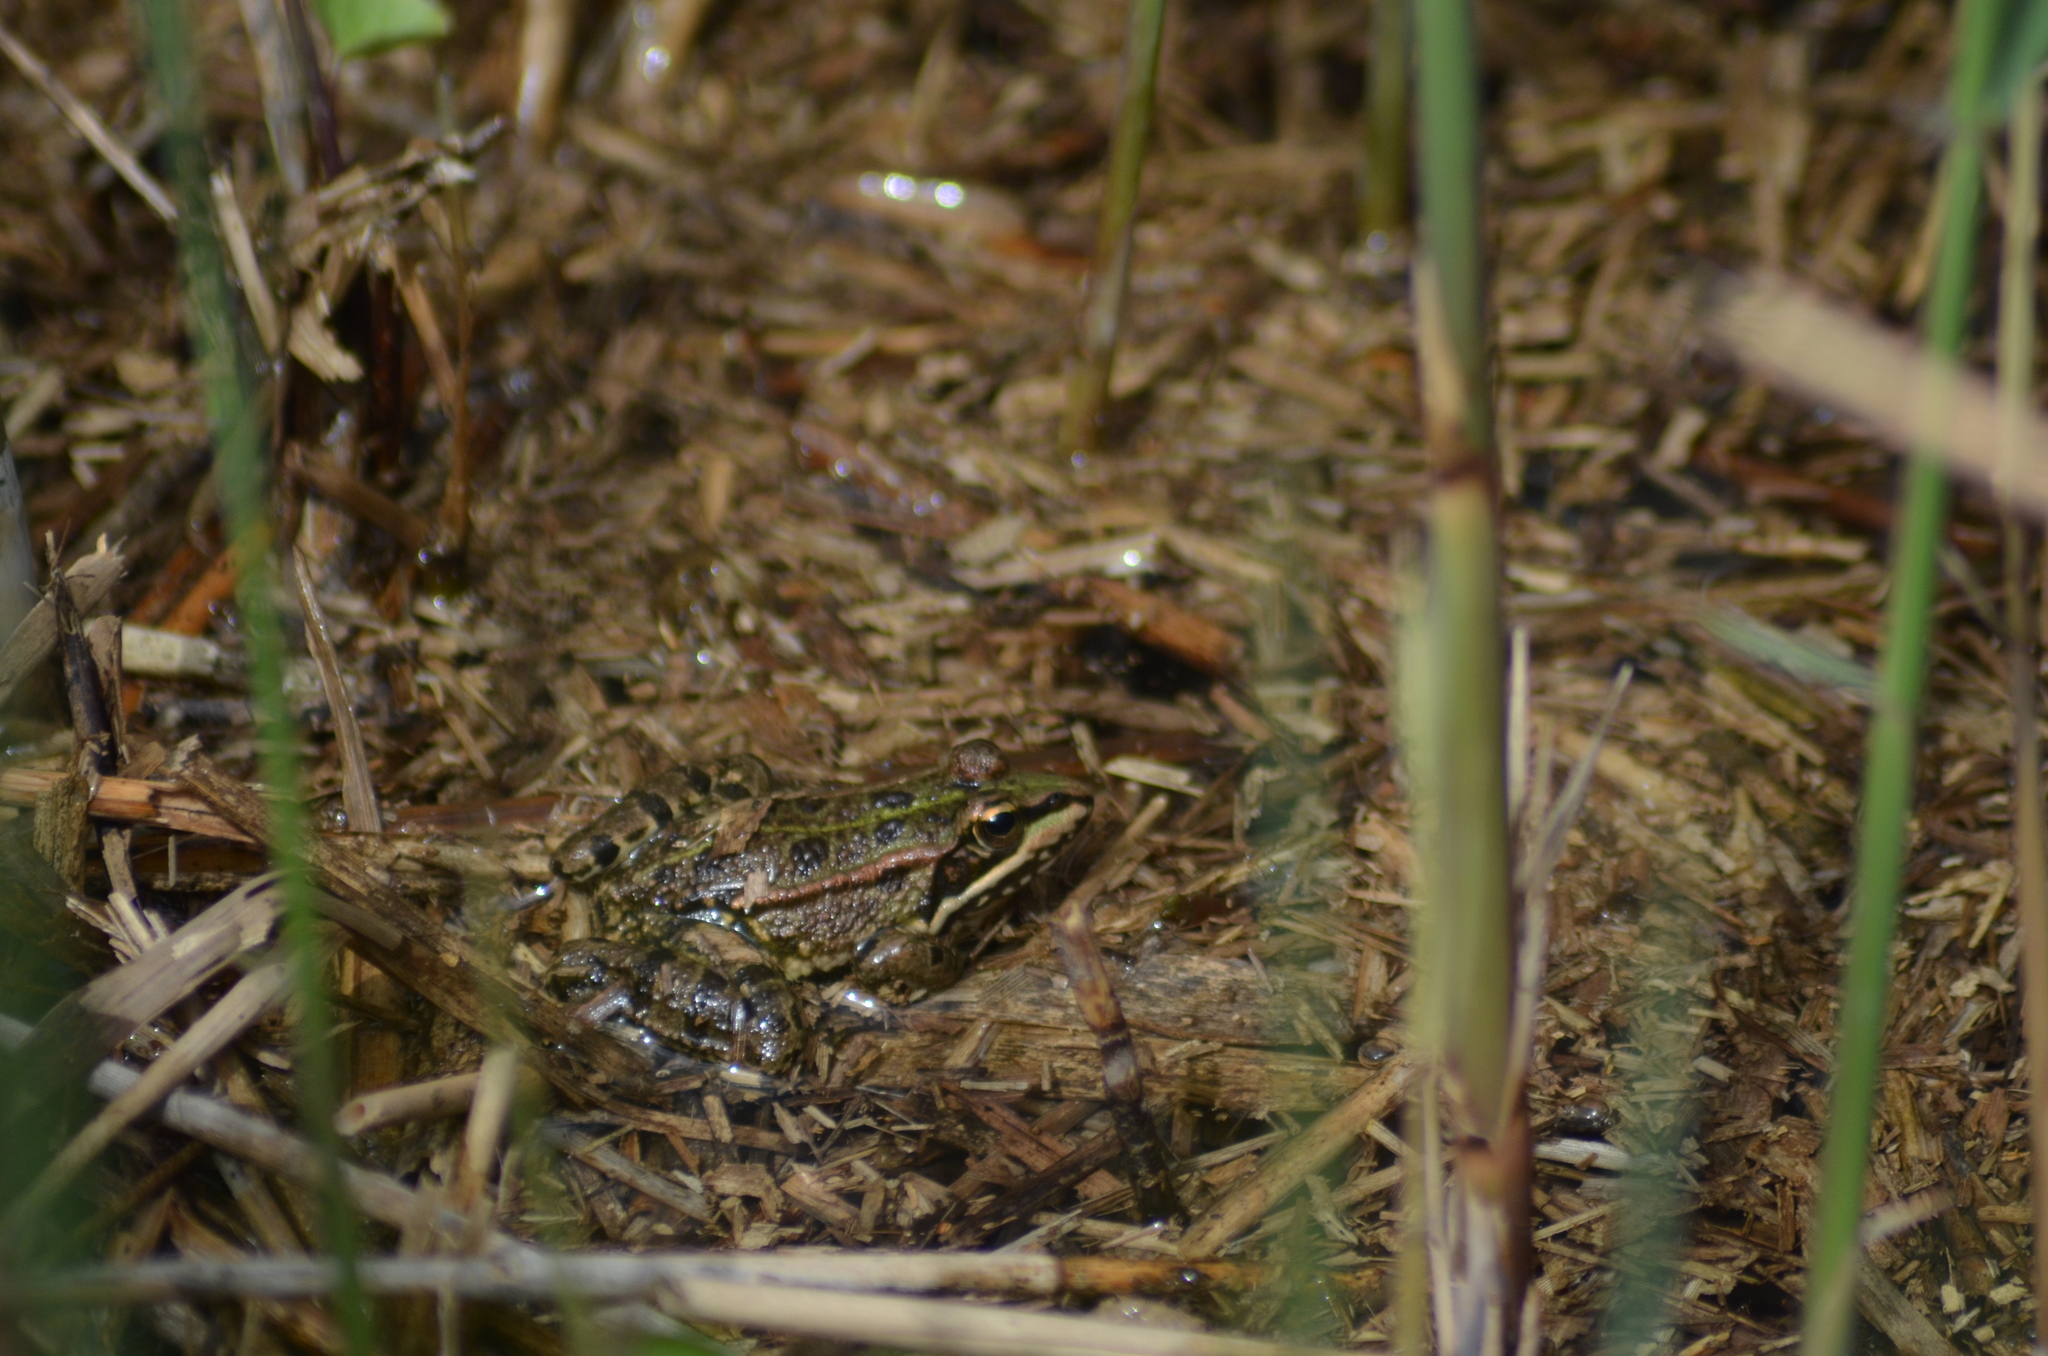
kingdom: Animalia
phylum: Chordata
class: Amphibia
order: Anura
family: Ranidae
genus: Pelophylax
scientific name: Pelophylax perezi
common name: Perez's frog
